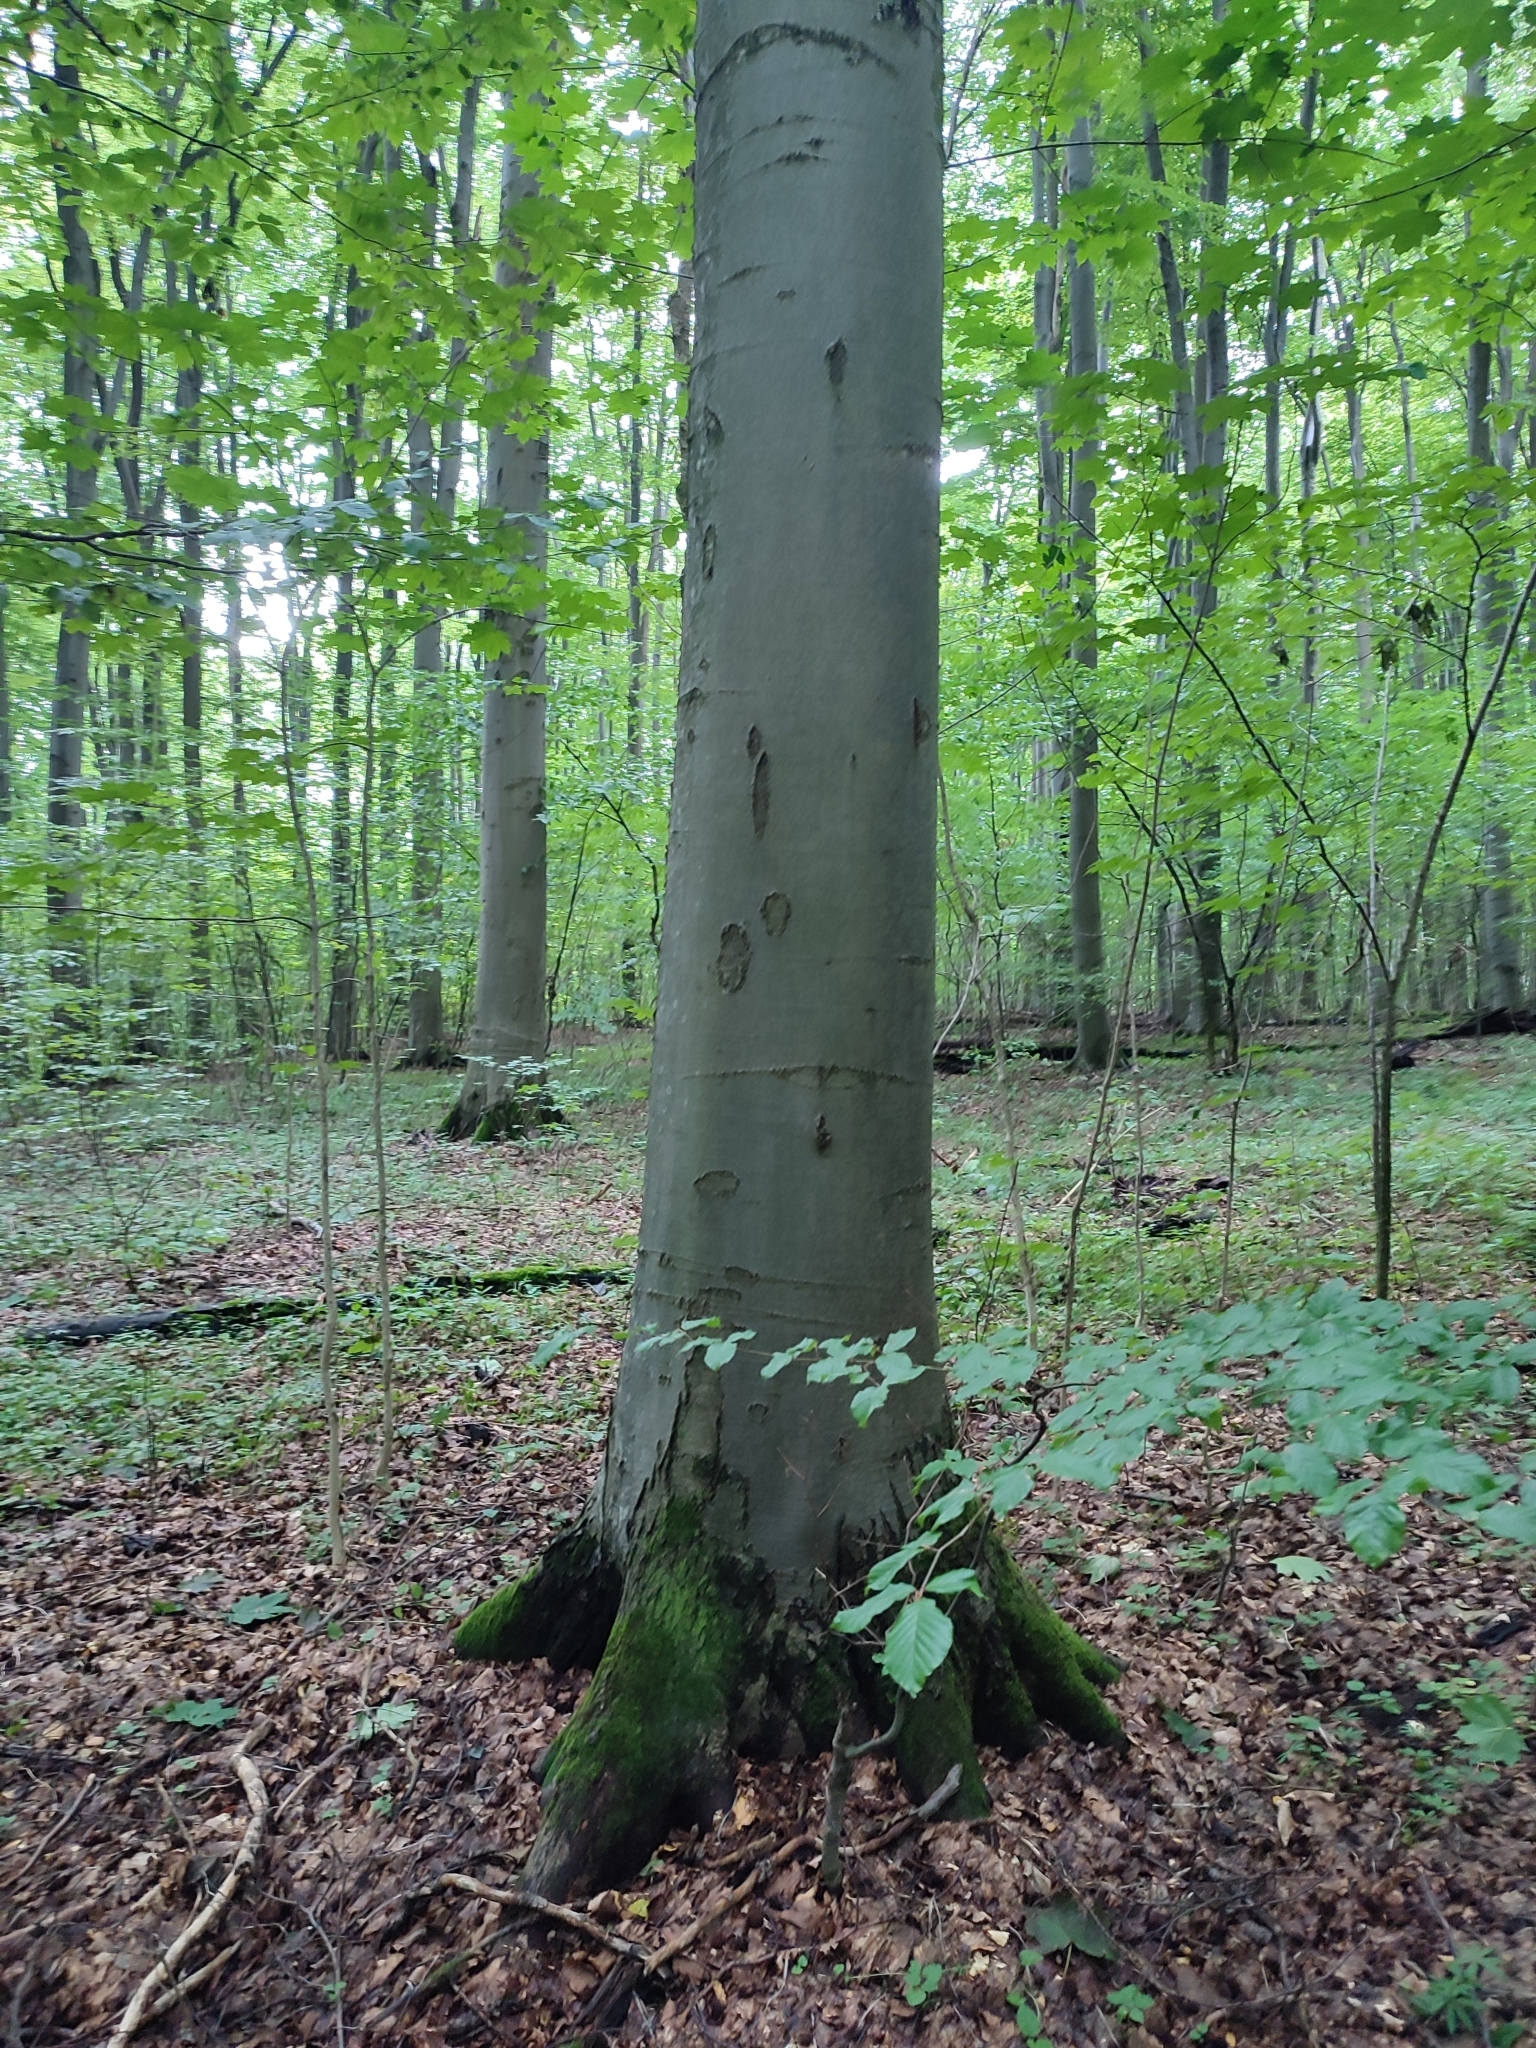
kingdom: Plantae
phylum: Tracheophyta
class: Magnoliopsida
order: Fagales
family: Fagaceae
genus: Fagus
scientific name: Fagus sylvatica
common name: Beech
